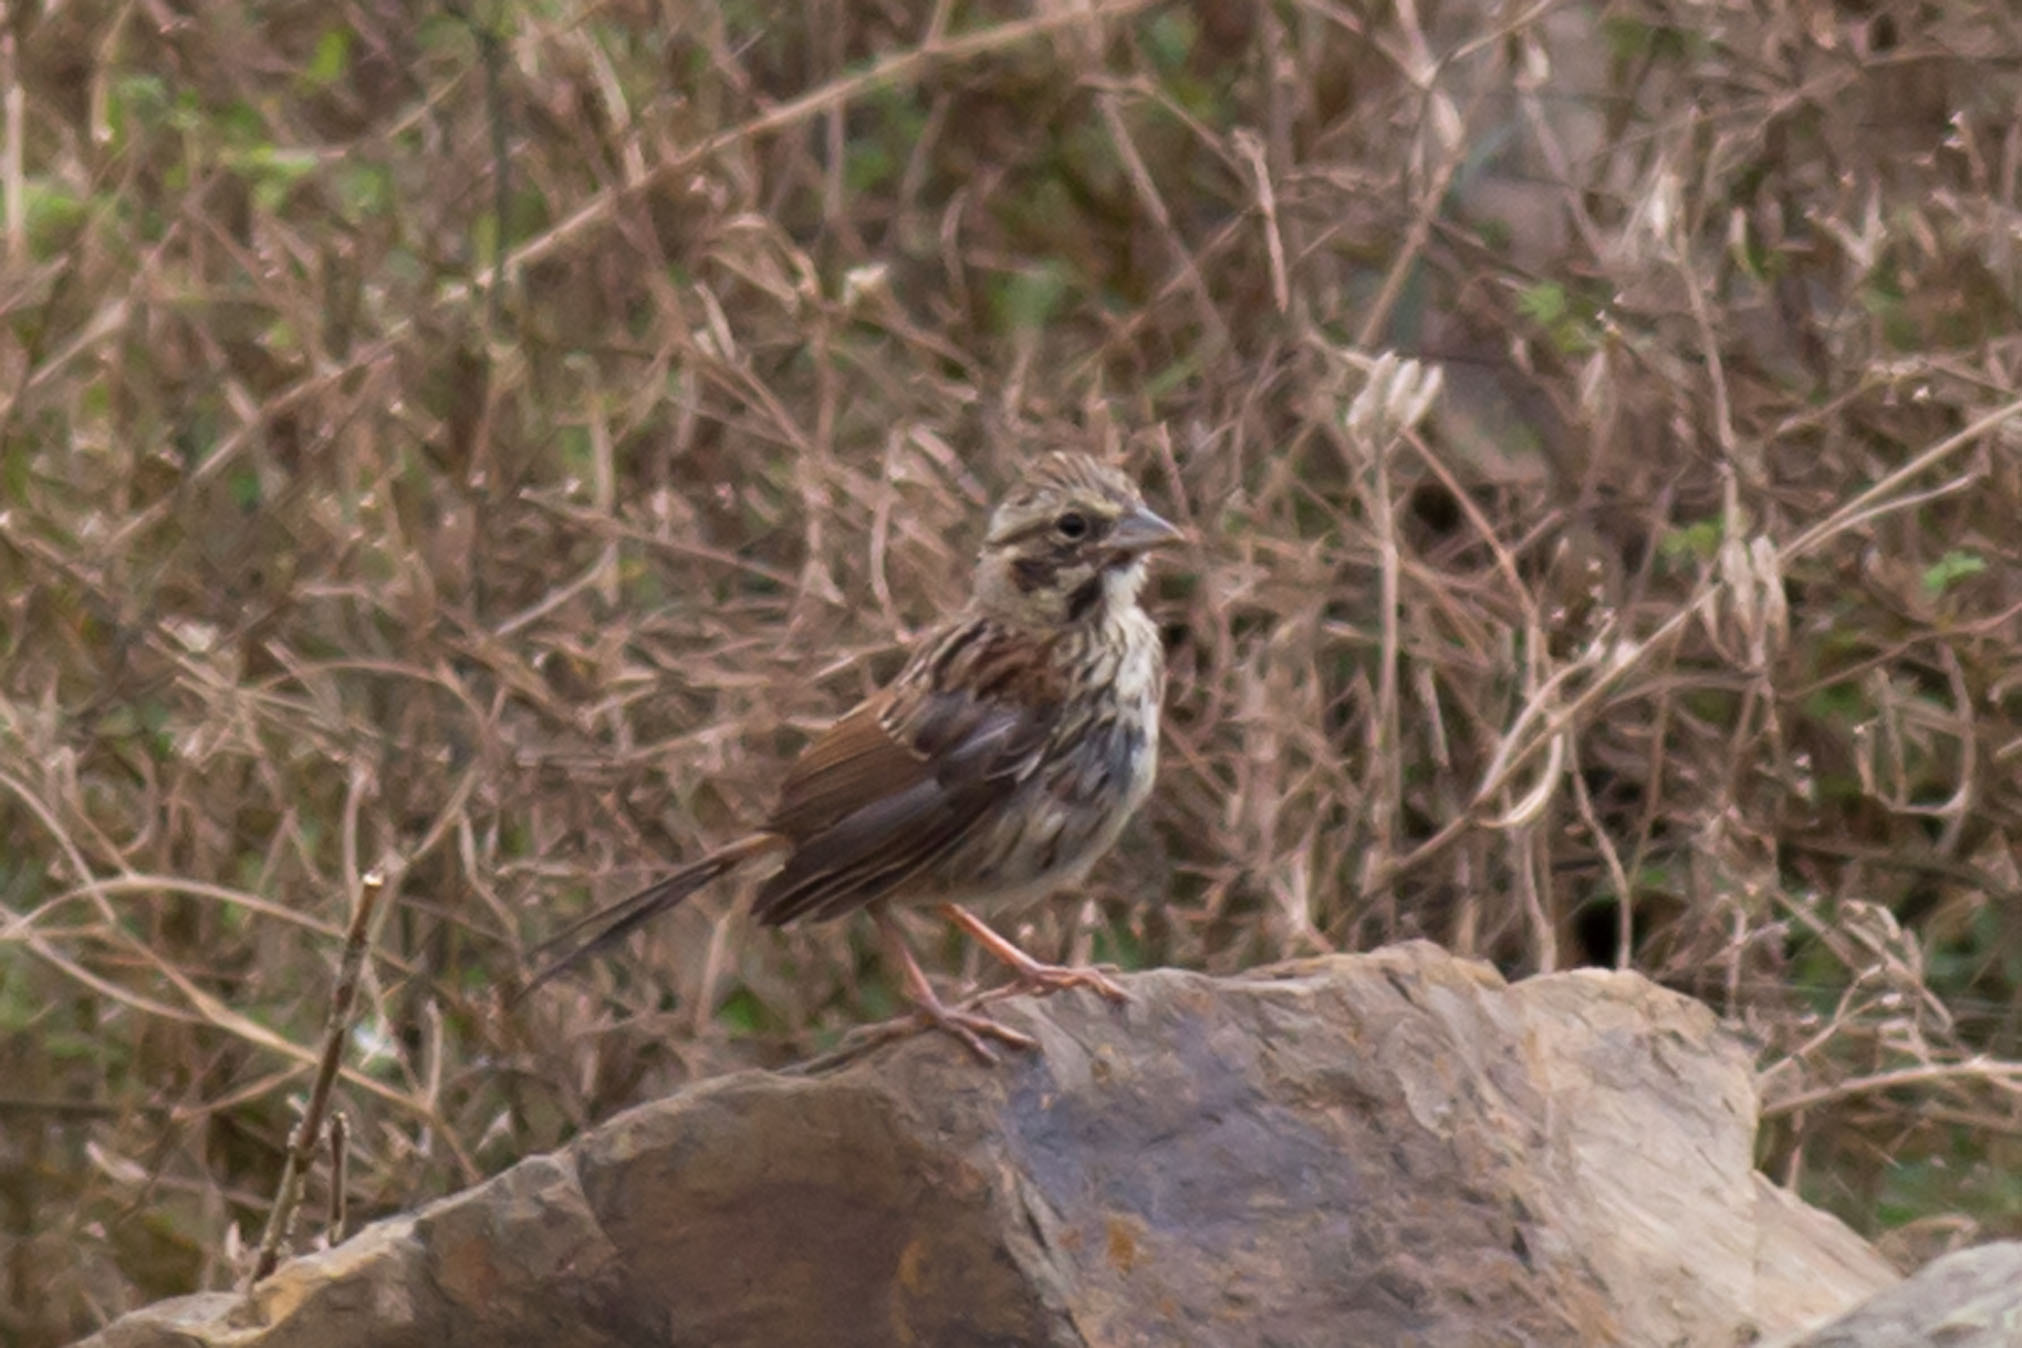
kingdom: Animalia
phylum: Chordata
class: Aves
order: Passeriformes
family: Passerellidae
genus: Melospiza
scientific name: Melospiza melodia
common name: Song sparrow
